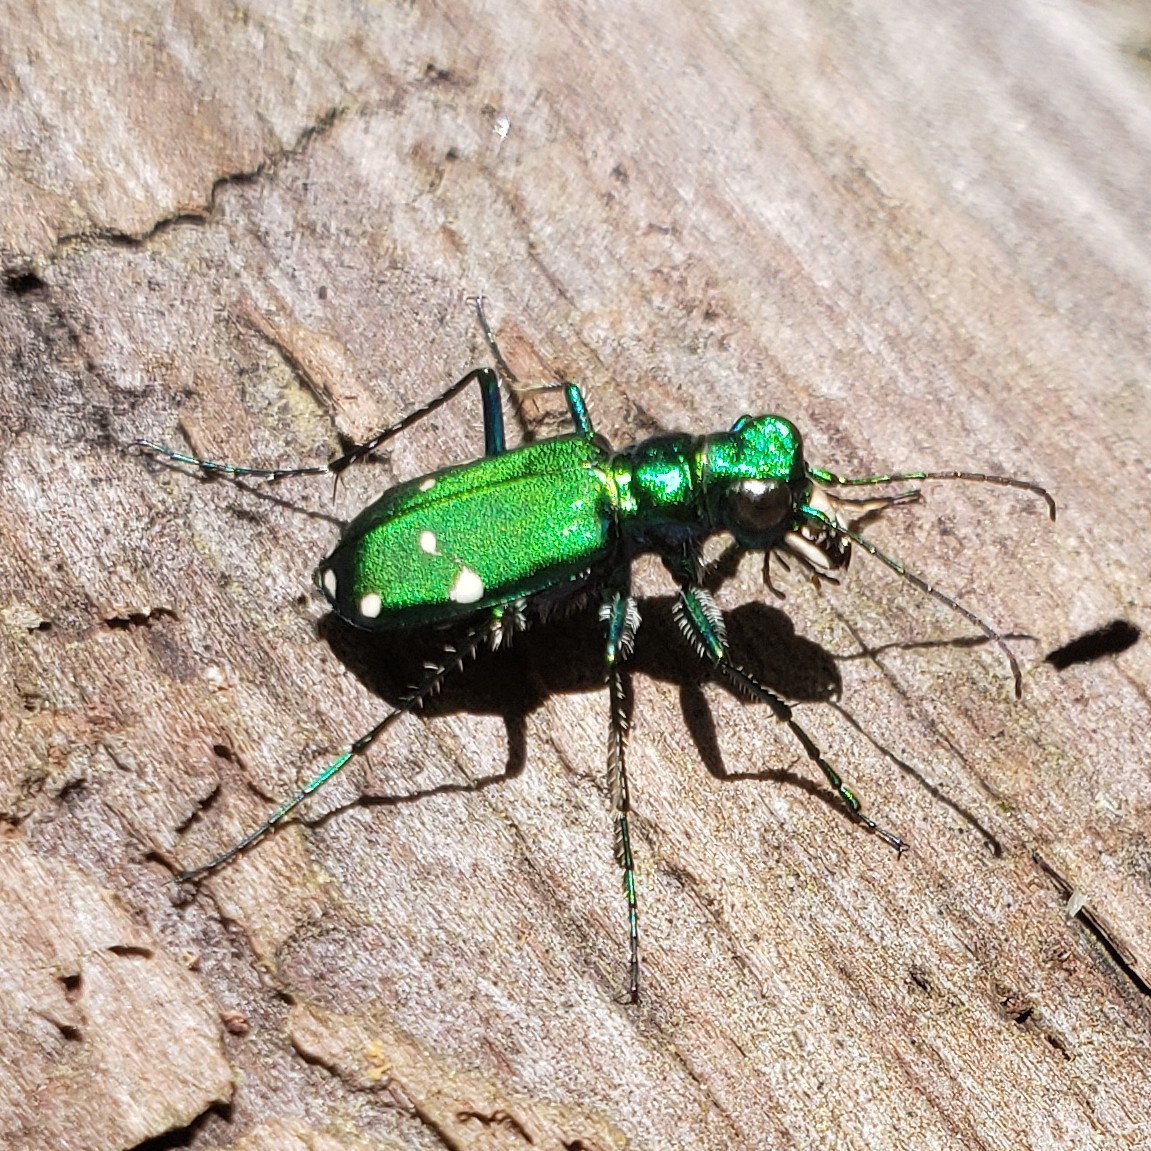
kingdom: Animalia
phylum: Arthropoda
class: Insecta
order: Coleoptera
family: Carabidae
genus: Cicindela
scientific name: Cicindela sexguttata
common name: Six-spotted tiger beetle
